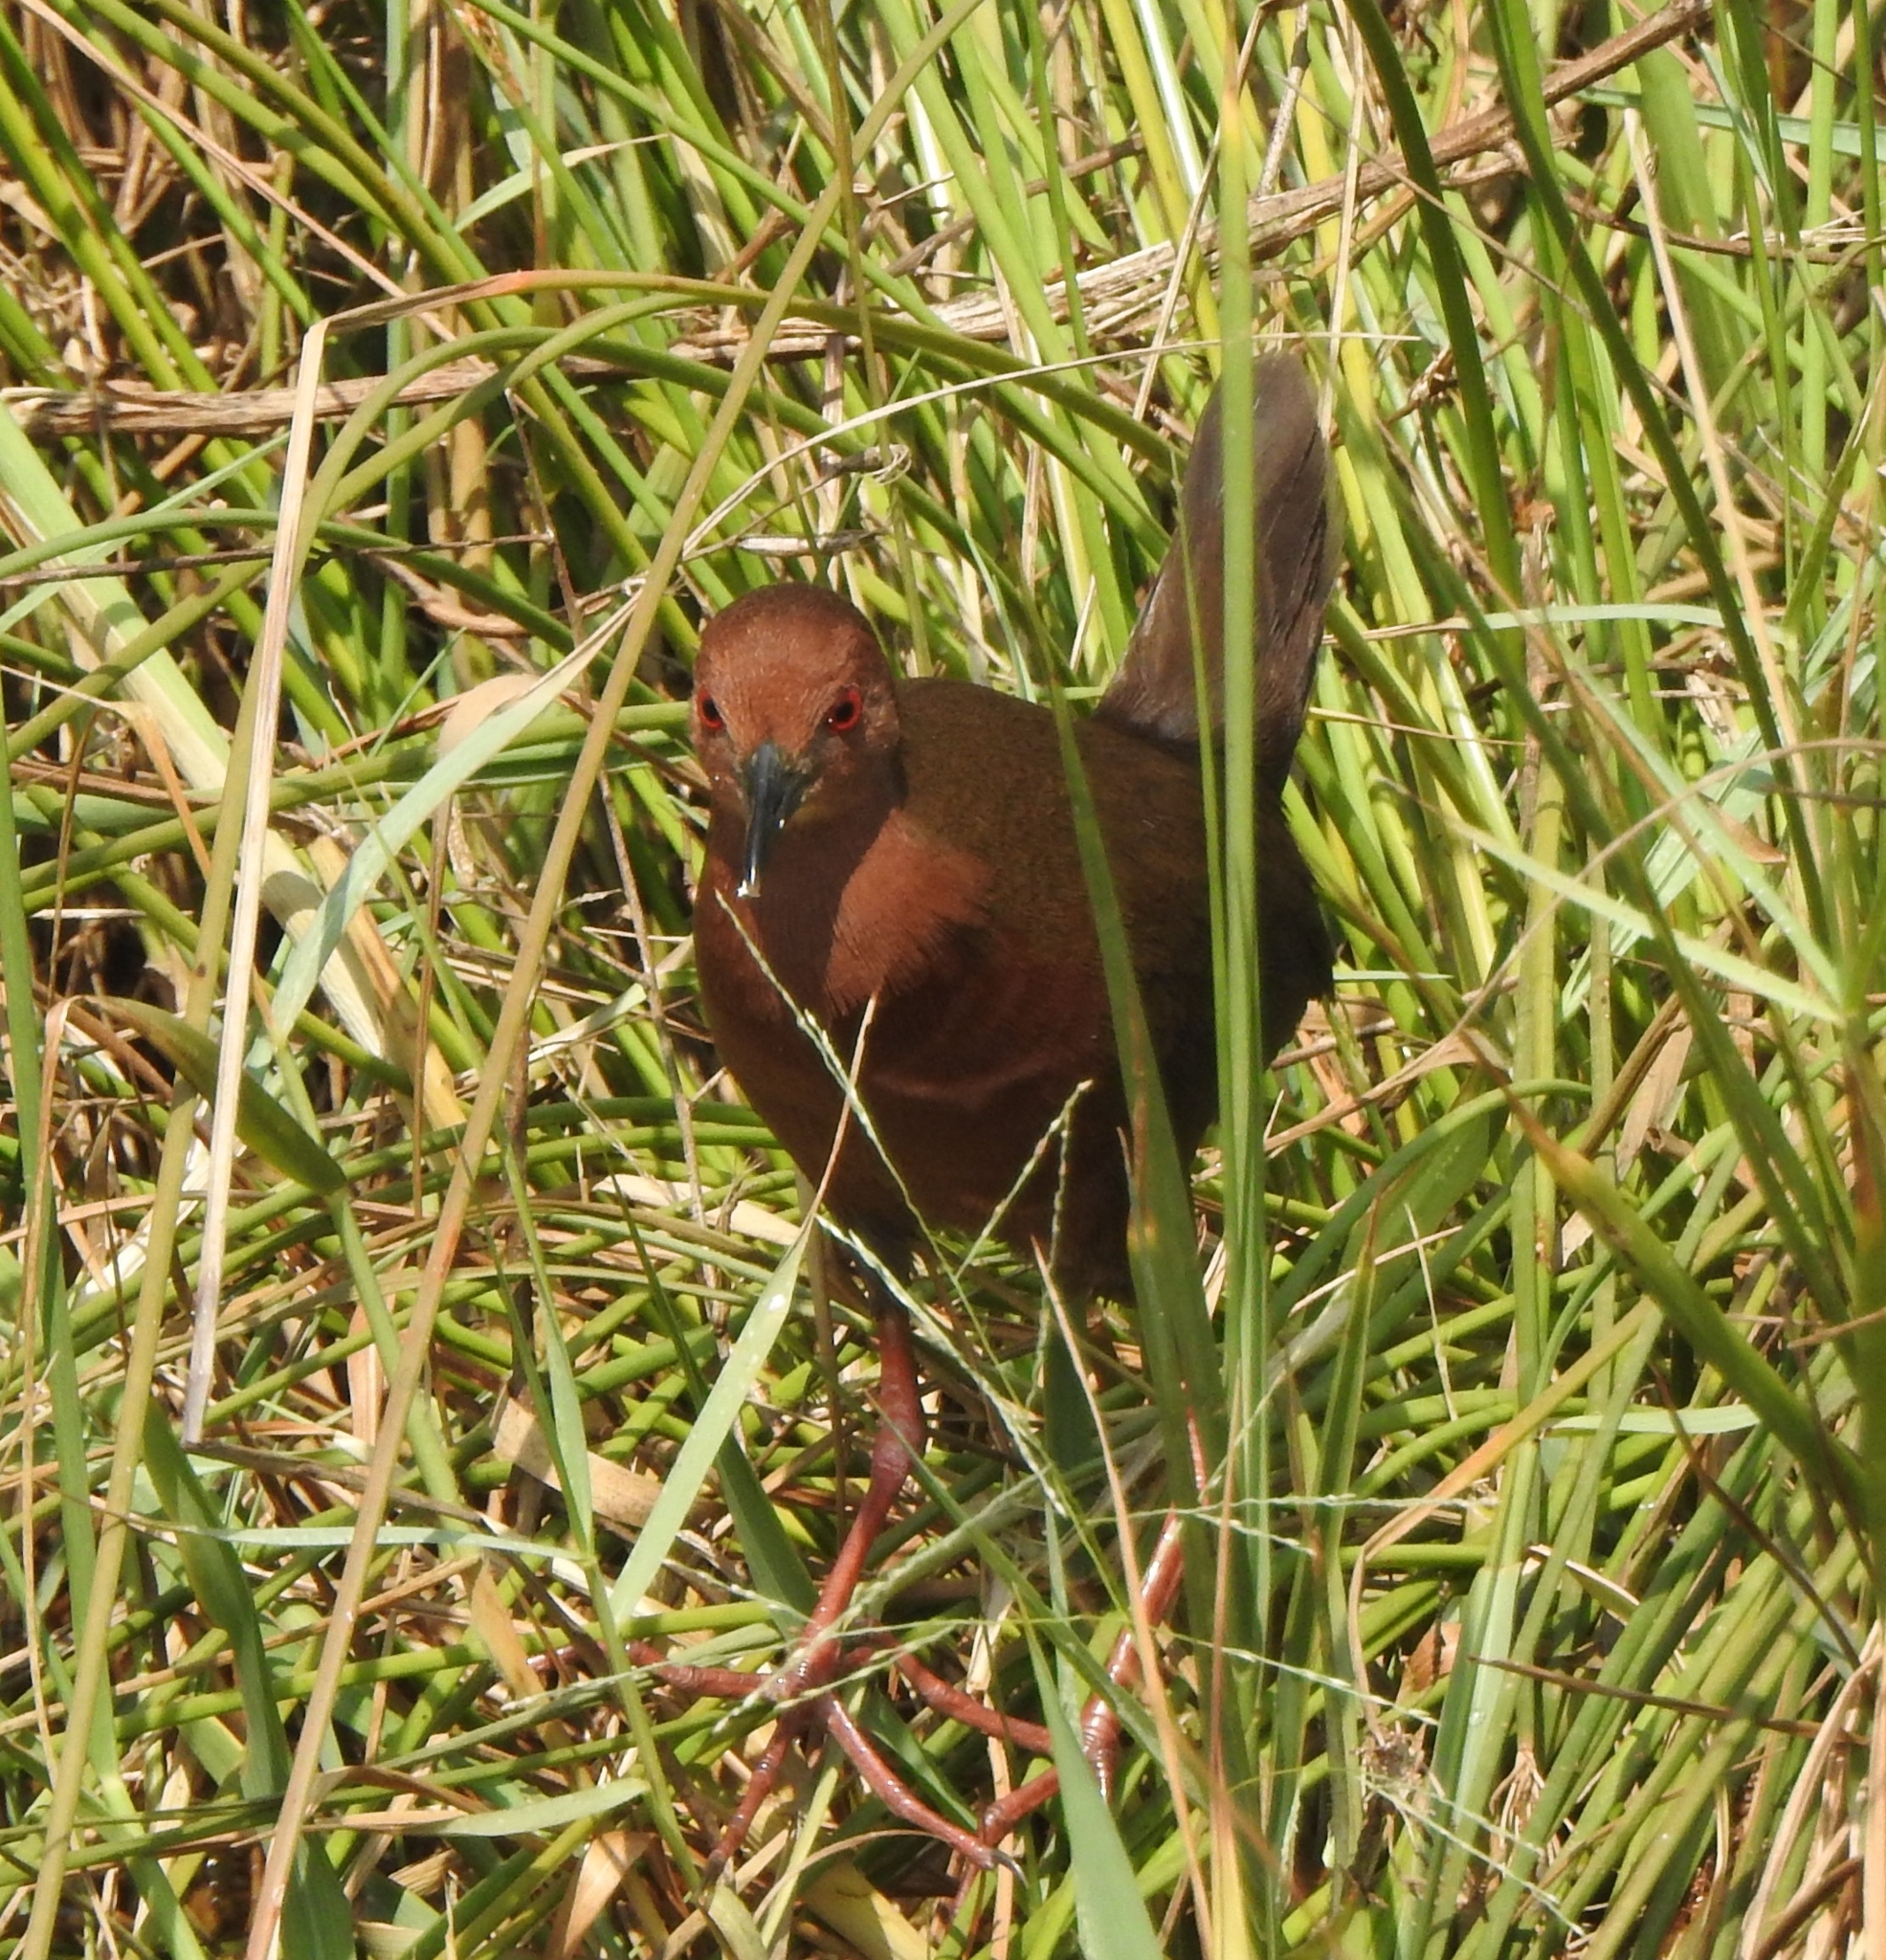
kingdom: Animalia
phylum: Chordata
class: Aves
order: Gruiformes
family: Rallidae
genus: Porzana
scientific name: Porzana fusca
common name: Ruddy-breasted crake
